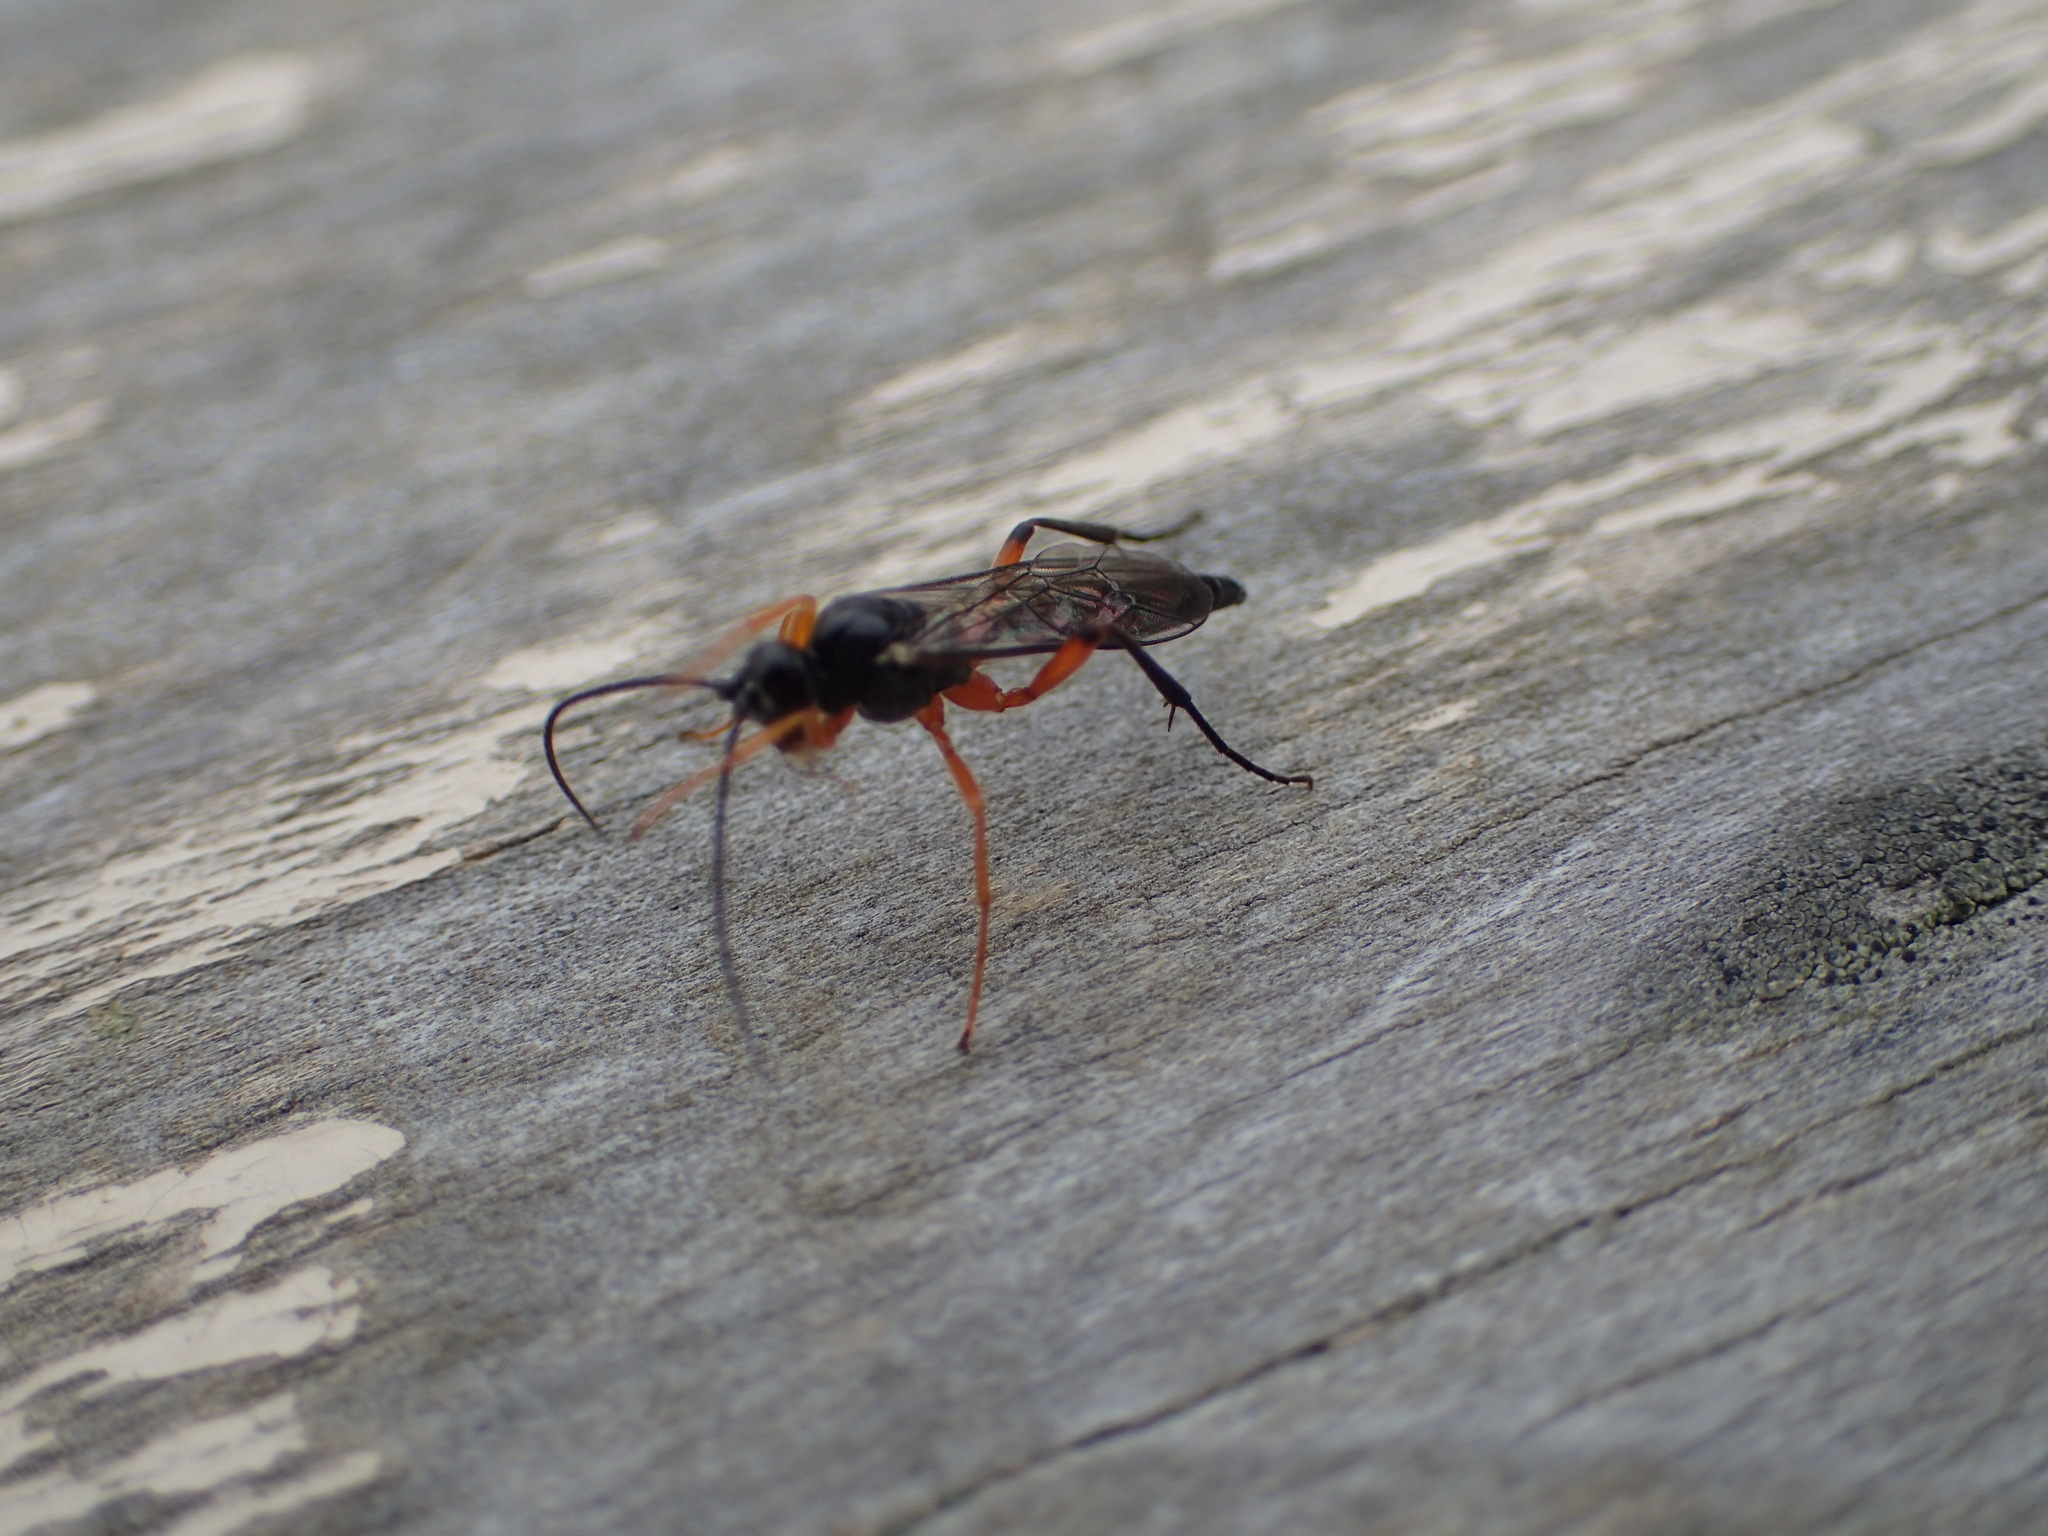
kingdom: Animalia
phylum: Arthropoda
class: Insecta
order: Hymenoptera
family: Ichneumonidae
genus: Pimpla
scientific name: Pimpla pedalis
